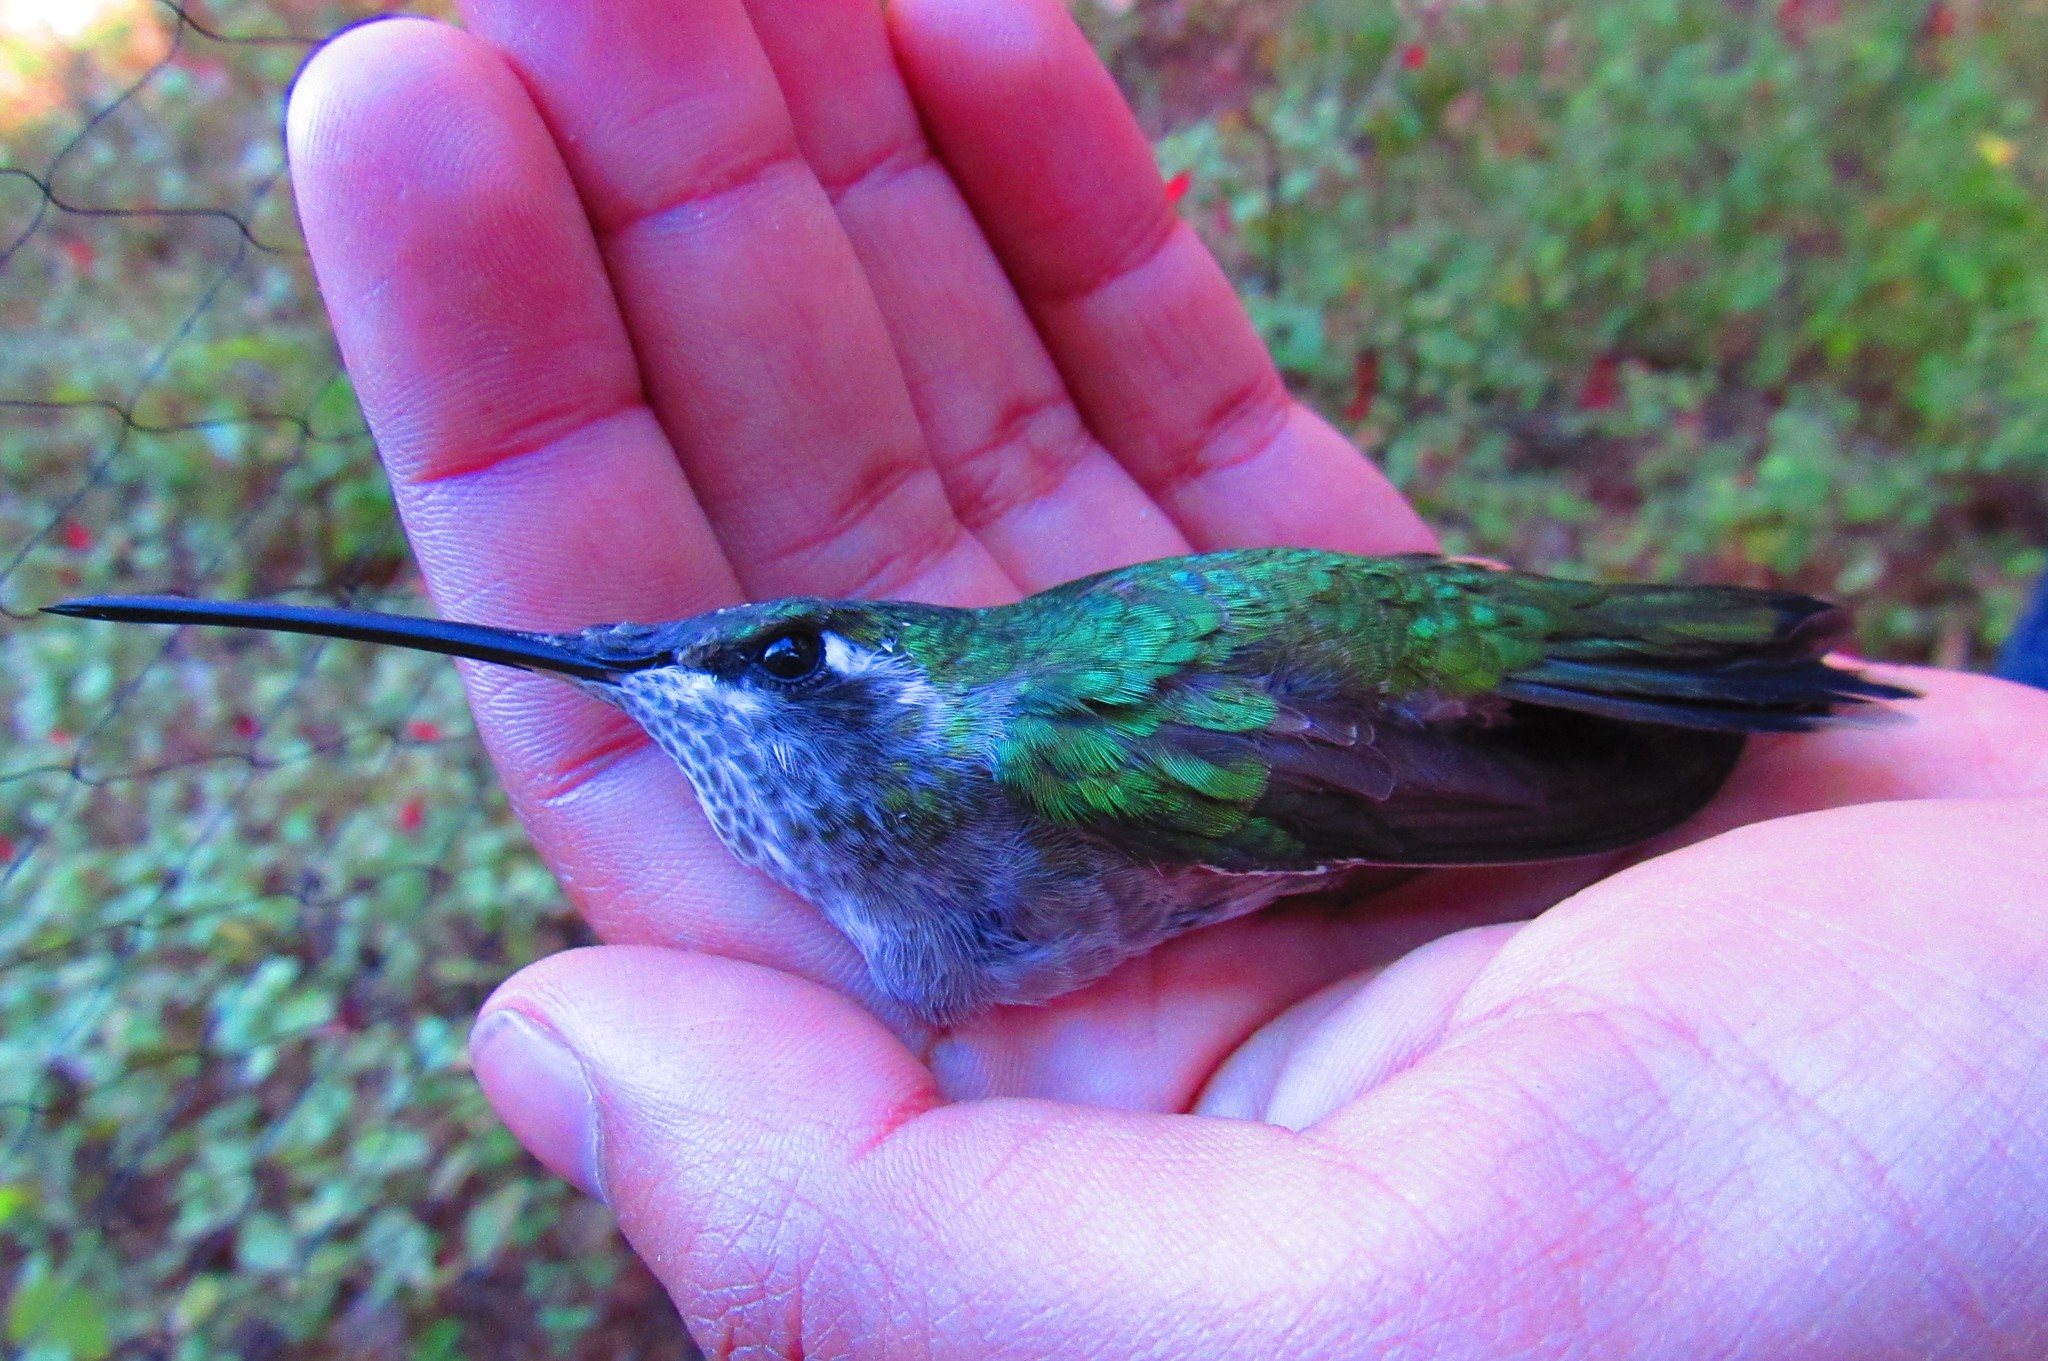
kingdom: Animalia
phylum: Chordata
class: Aves
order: Apodiformes
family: Trochilidae
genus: Eugenes
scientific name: Eugenes fulgens
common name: Magnificent hummingbird
